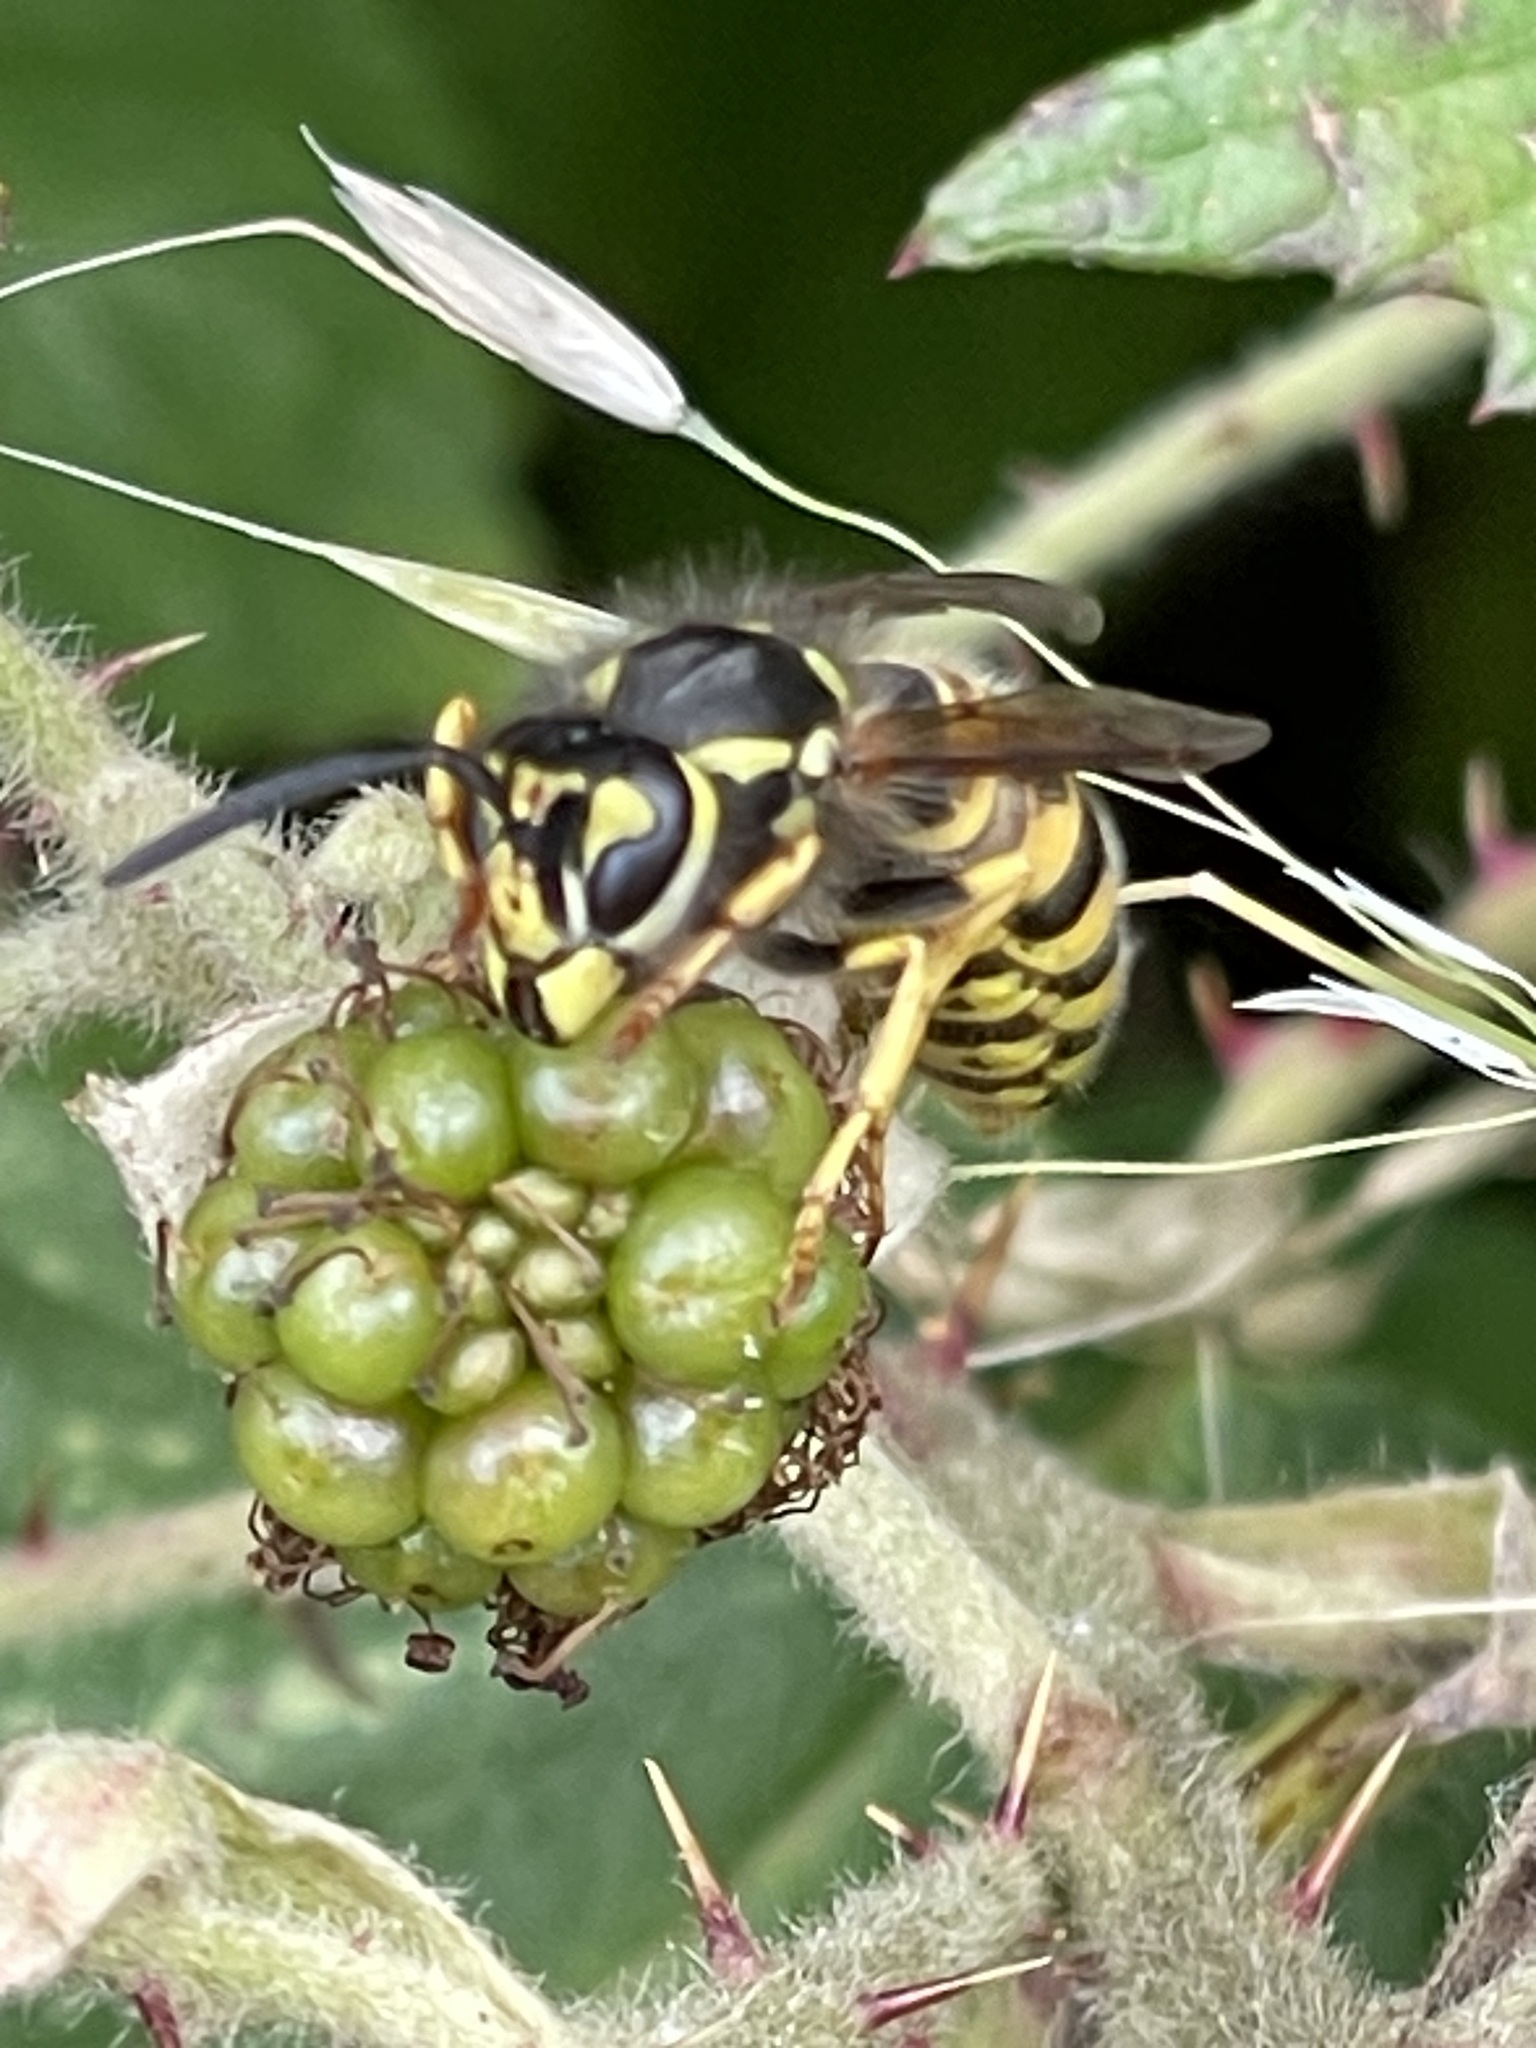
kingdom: Animalia
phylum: Arthropoda
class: Insecta
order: Hymenoptera
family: Vespidae
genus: Vespula
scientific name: Vespula germanica
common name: German wasp
